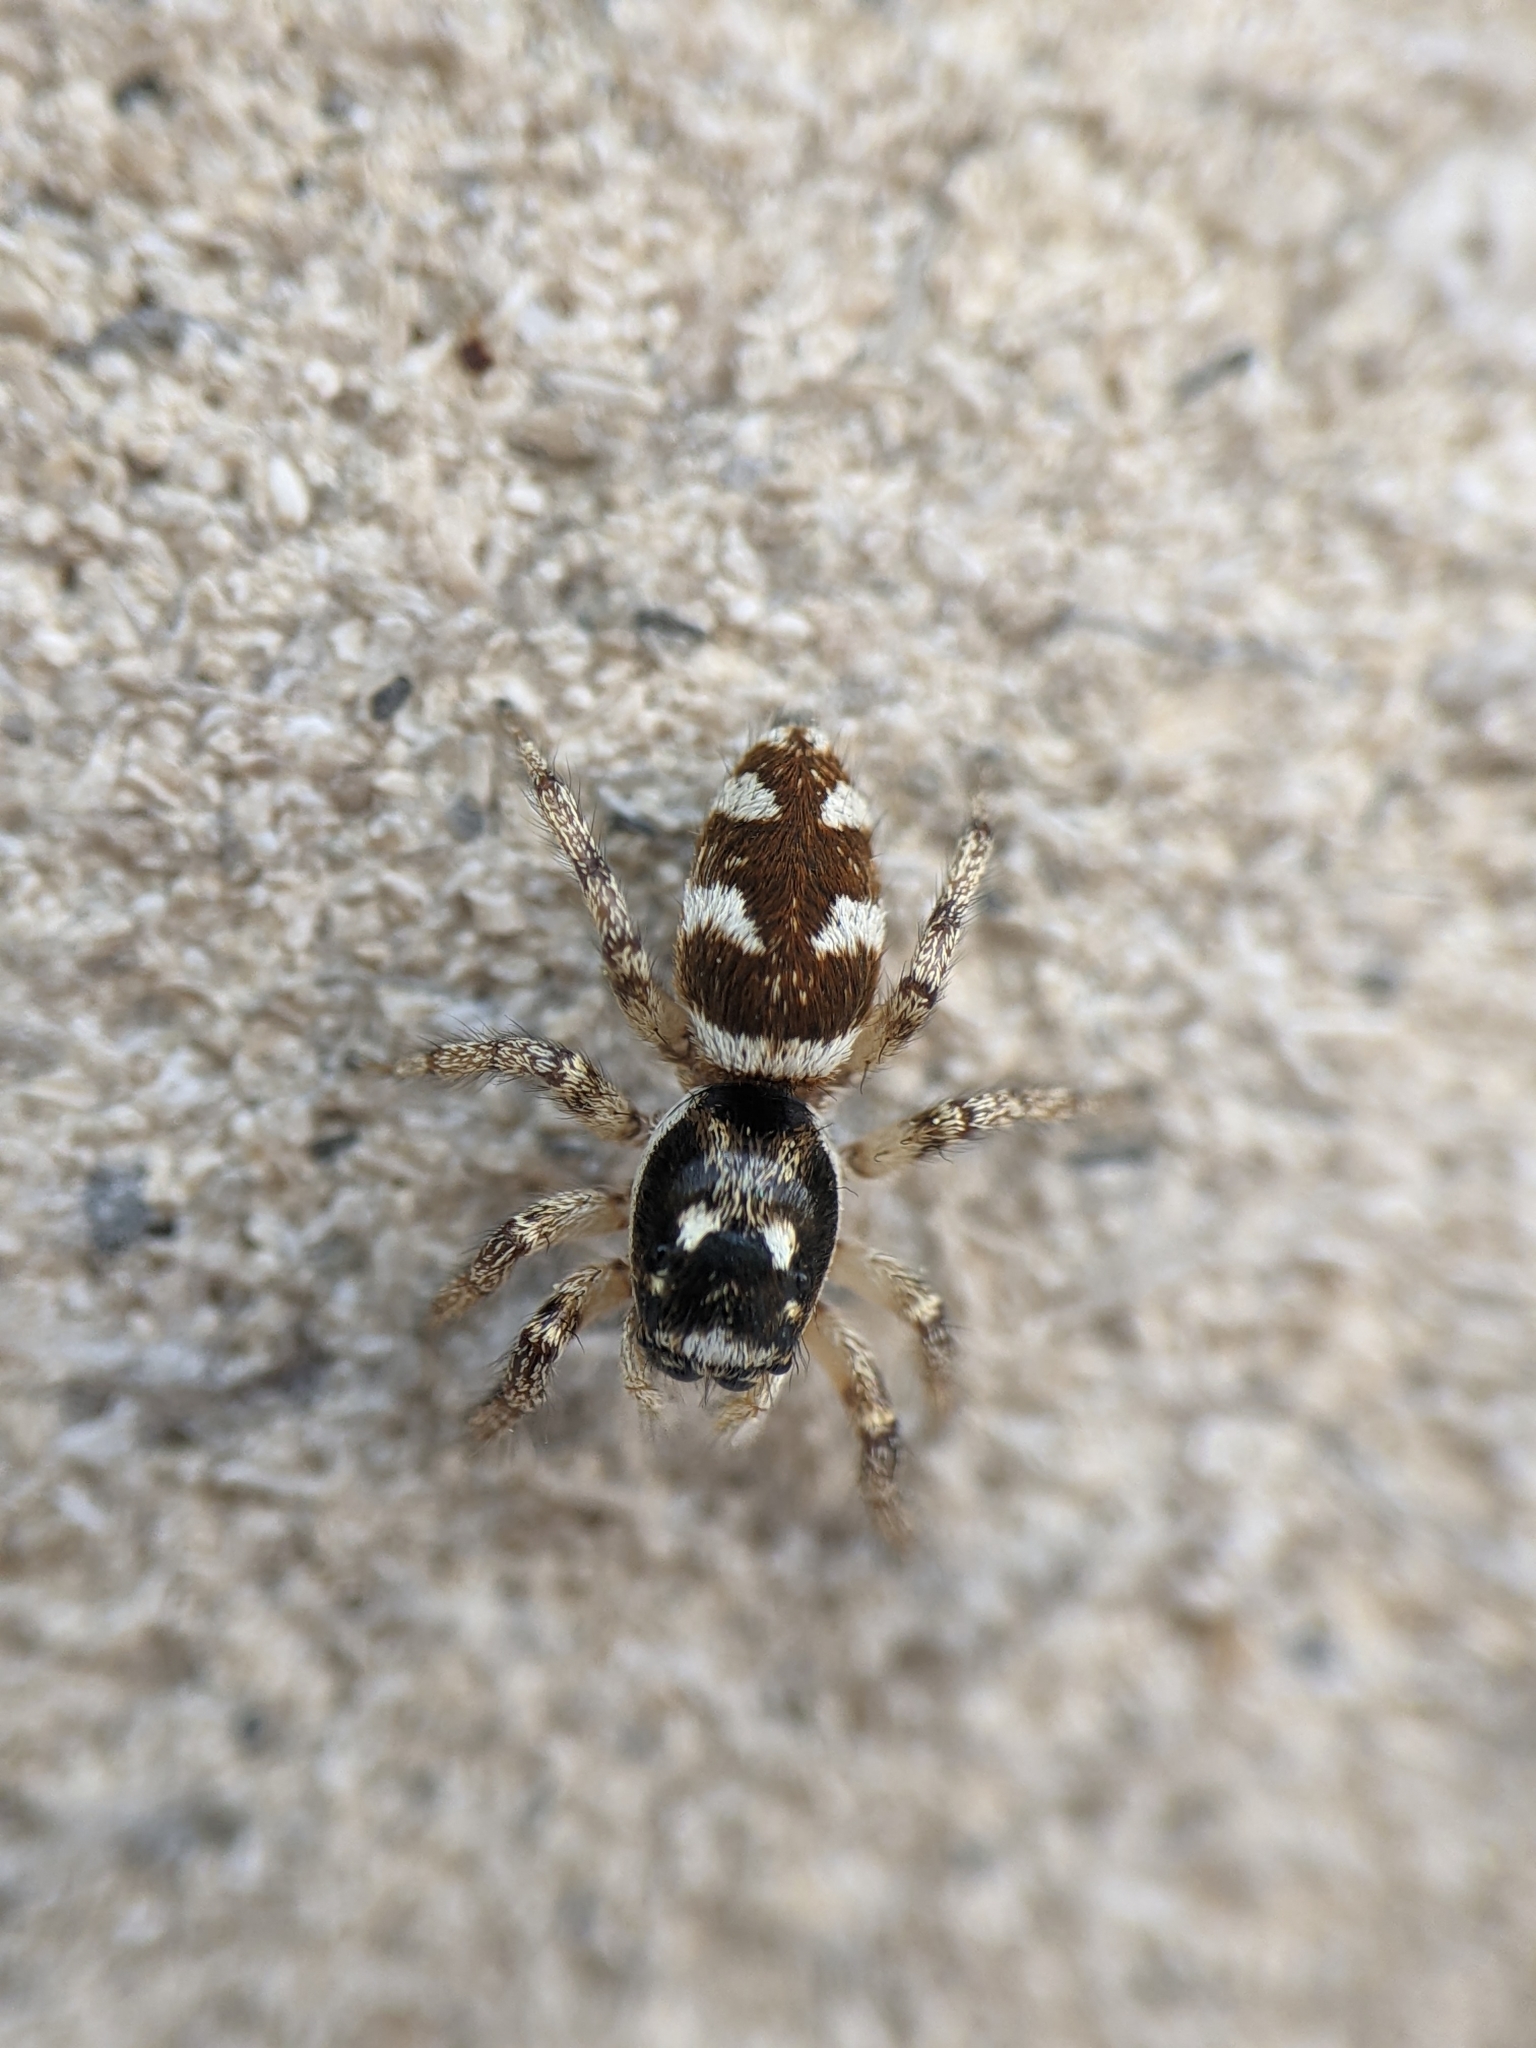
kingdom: Animalia
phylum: Arthropoda
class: Arachnida
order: Araneae
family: Salticidae
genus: Salticus
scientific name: Salticus scenicus
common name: Zebra jumper
